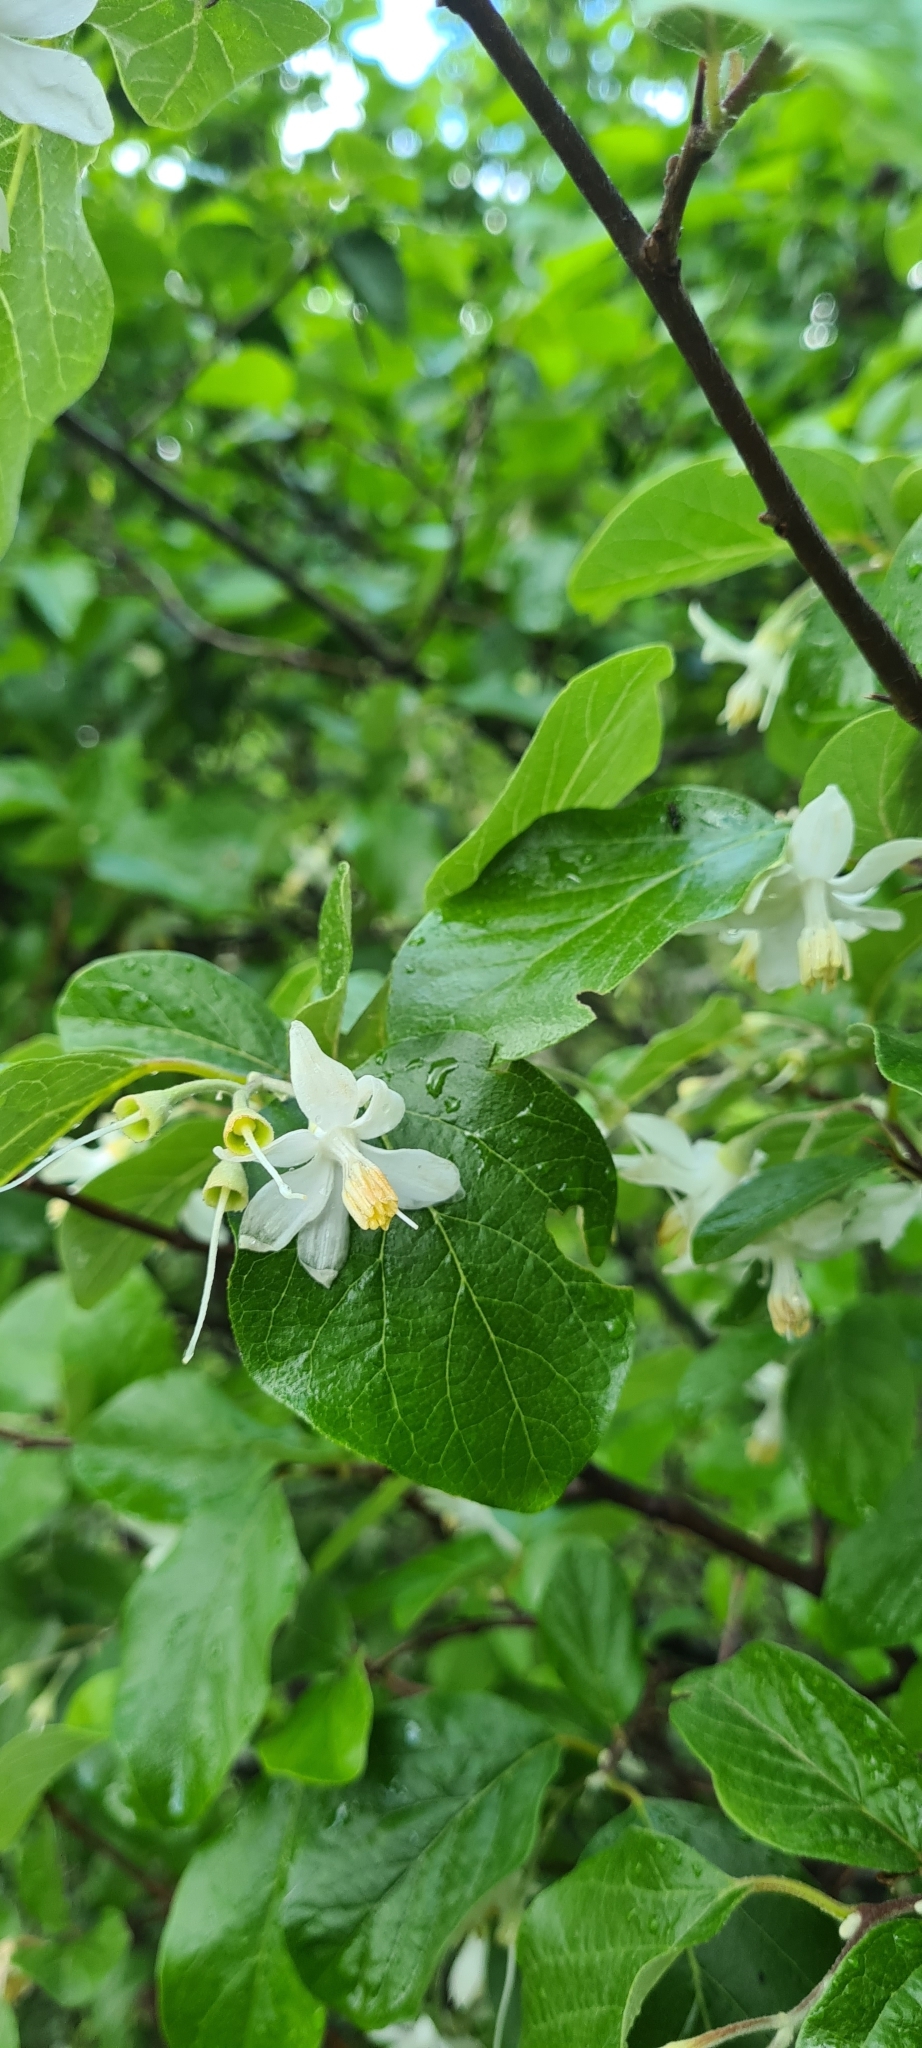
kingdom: Plantae
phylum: Tracheophyta
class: Magnoliopsida
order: Ericales
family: Styracaceae
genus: Styrax
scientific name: Styrax officinalis
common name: Storax
